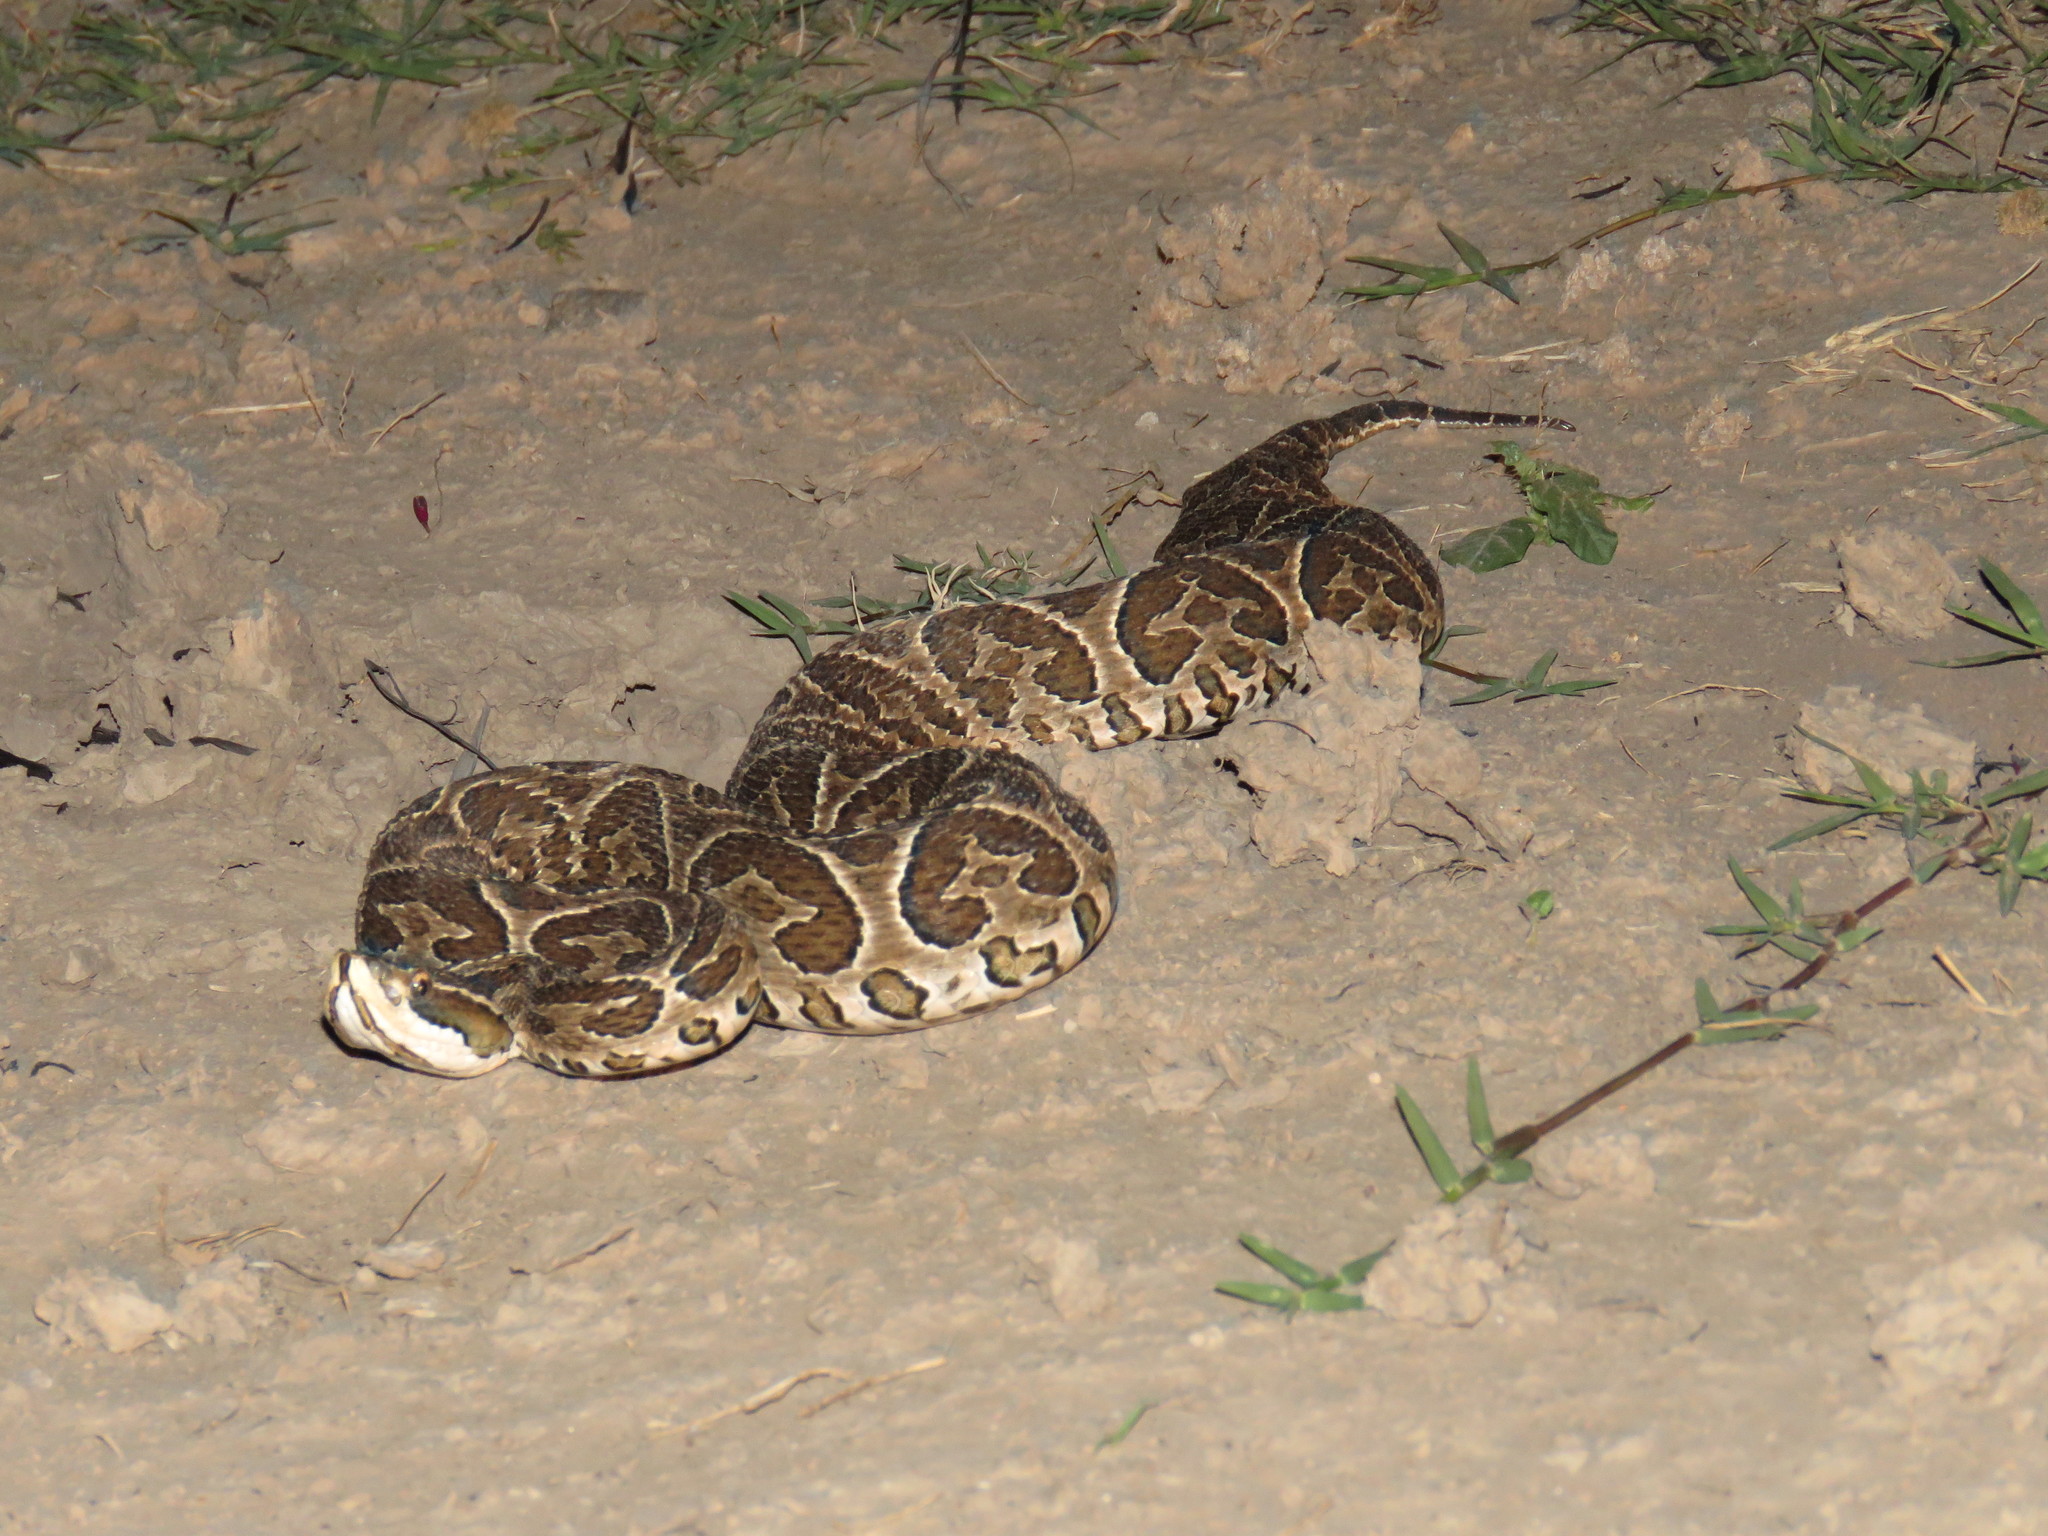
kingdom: Animalia
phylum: Chordata
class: Squamata
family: Viperidae
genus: Bothrops
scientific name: Bothrops alternatus
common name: Urutu
